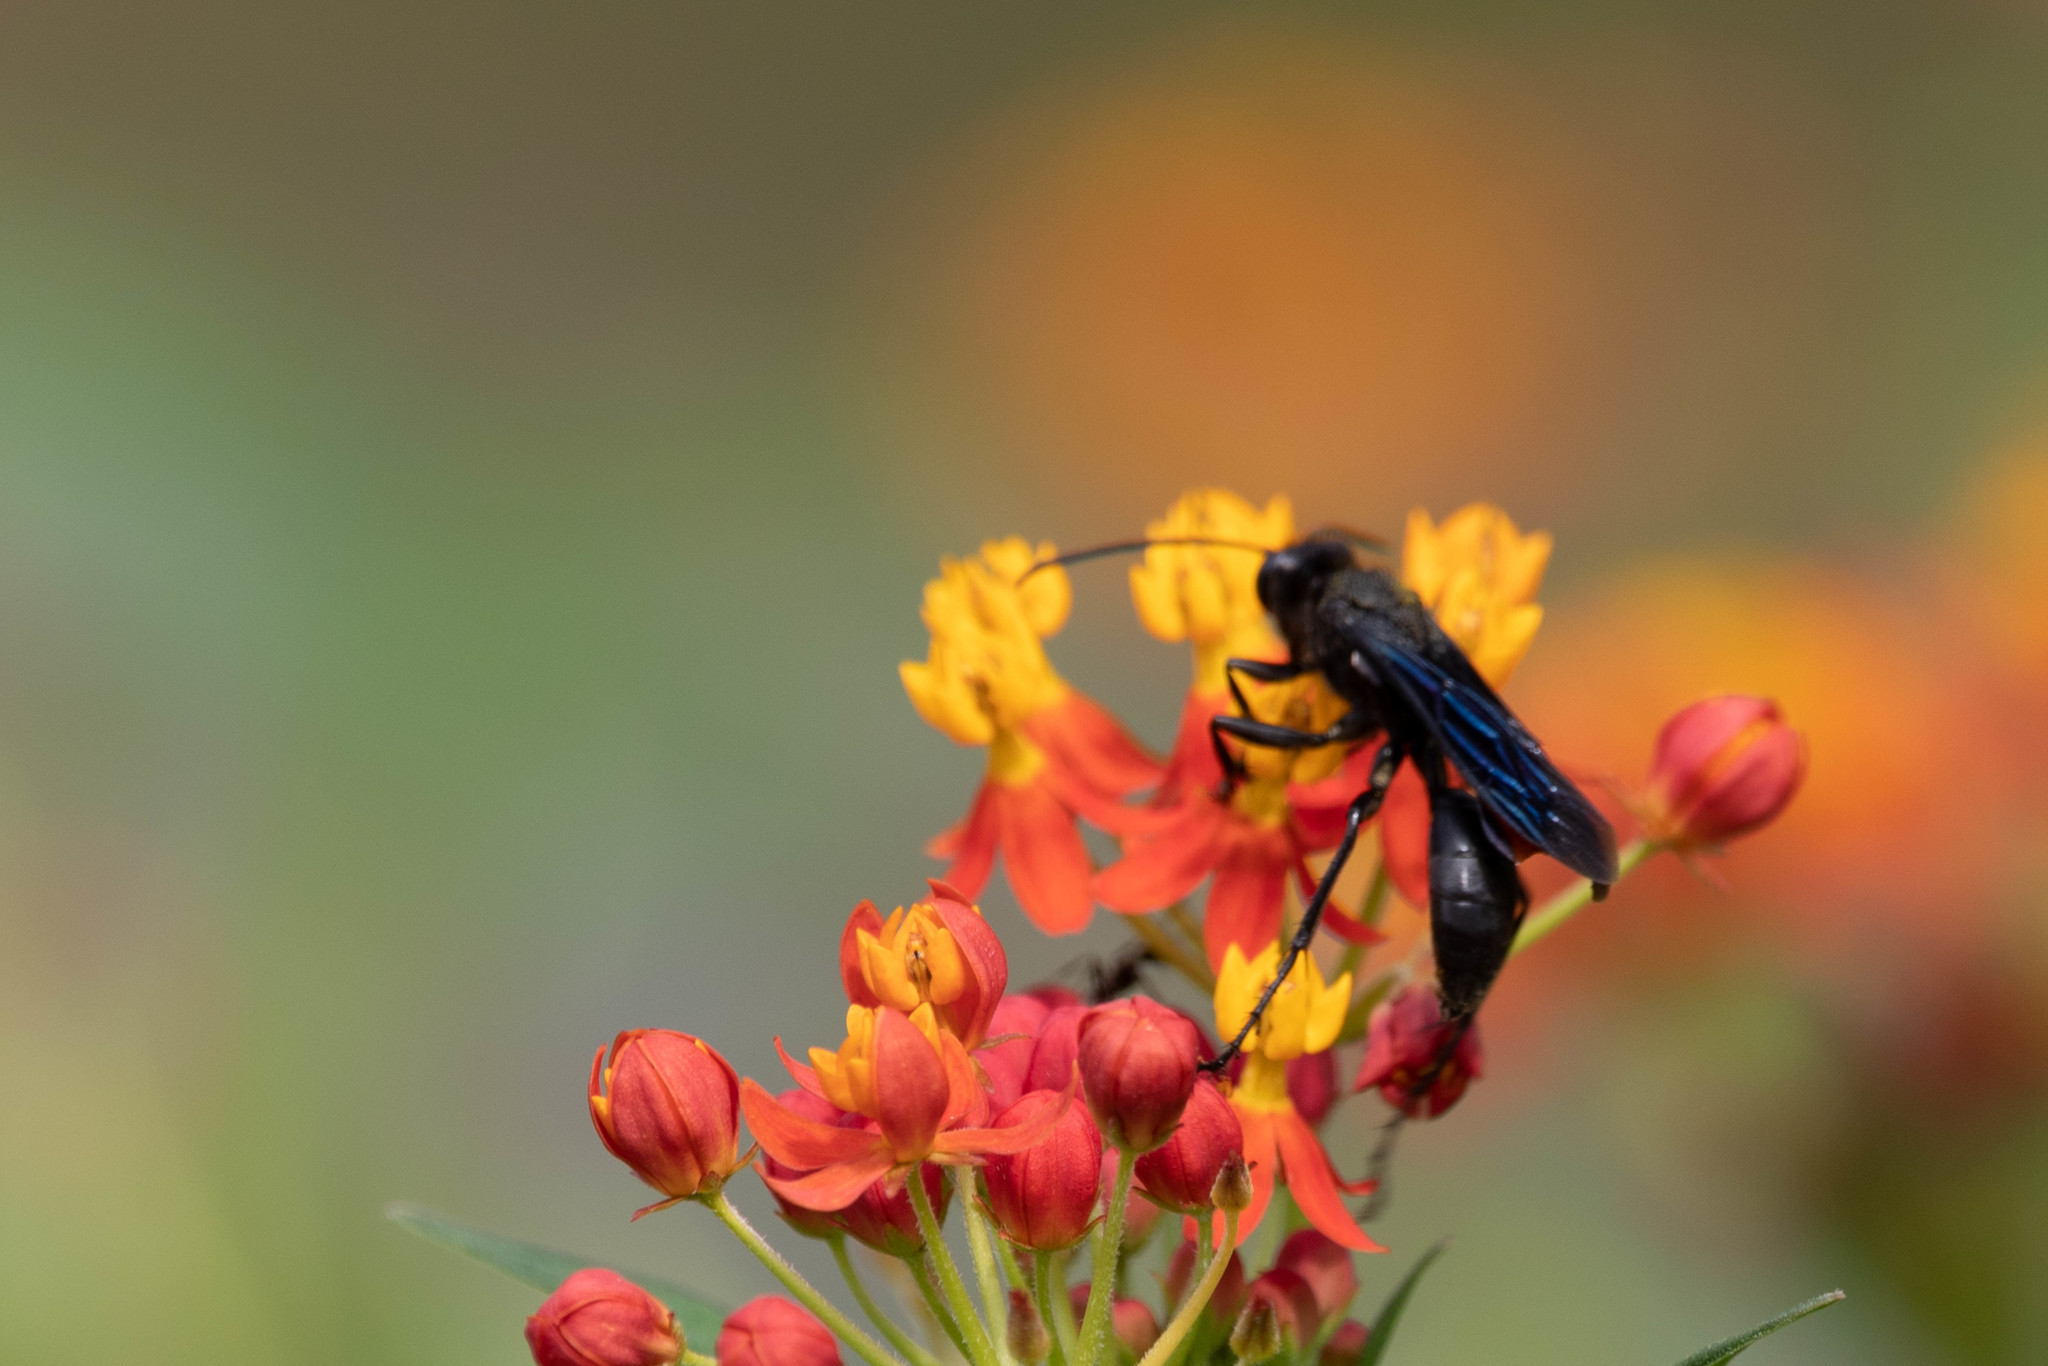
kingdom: Animalia
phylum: Arthropoda
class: Insecta
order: Hymenoptera
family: Sphecidae
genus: Sphex
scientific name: Sphex pensylvanicus
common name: Great black digger wasp
